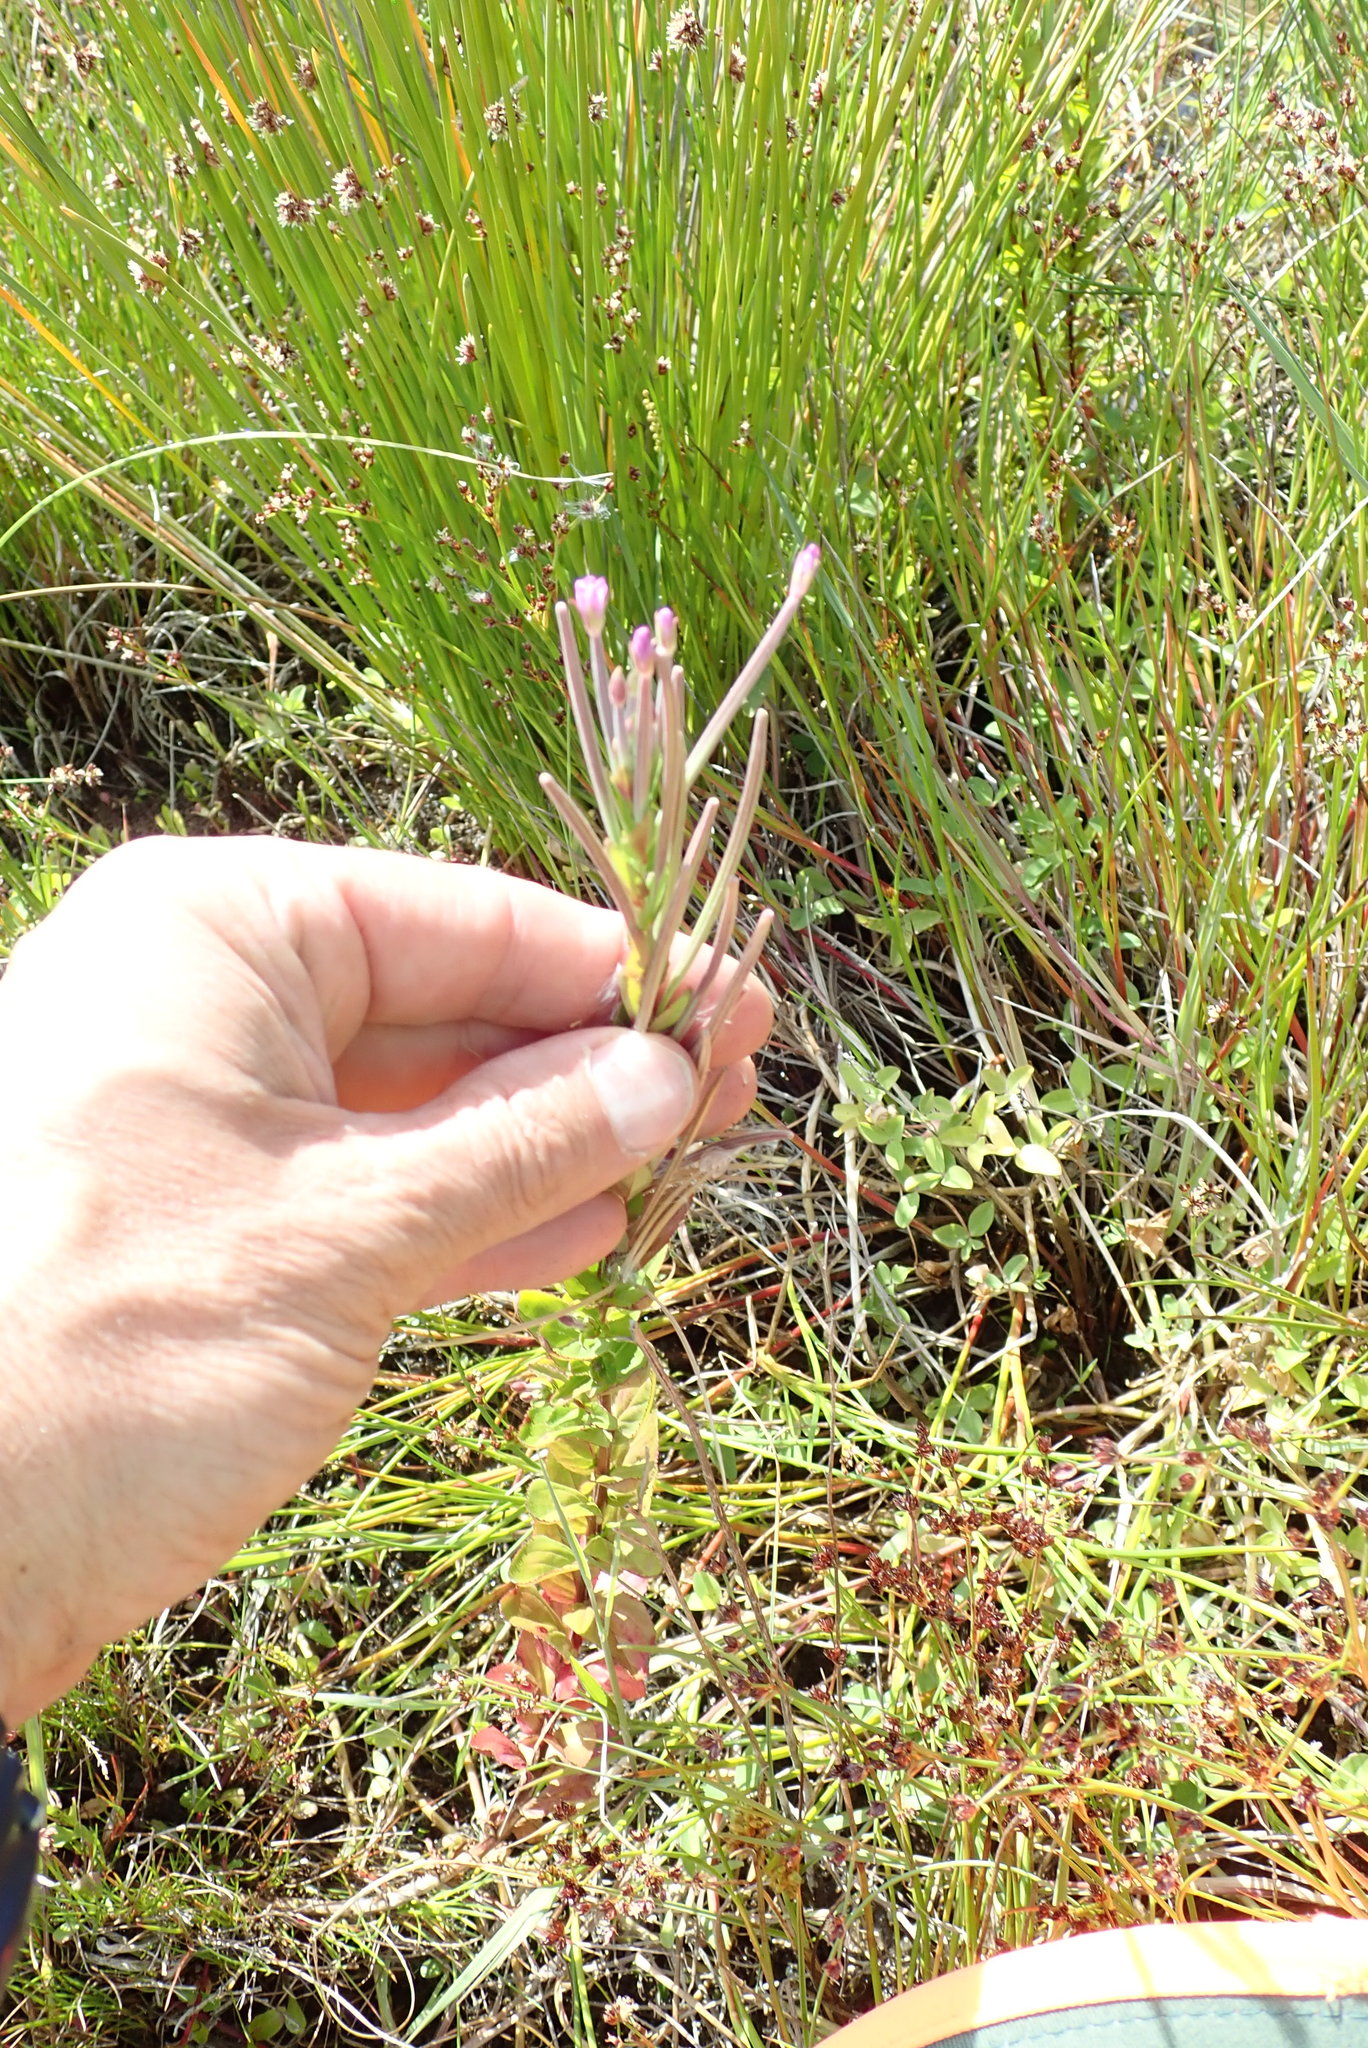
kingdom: Plantae
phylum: Tracheophyta
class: Magnoliopsida
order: Myrtales
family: Onagraceae
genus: Epilobium
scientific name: Epilobium billardiereanum
